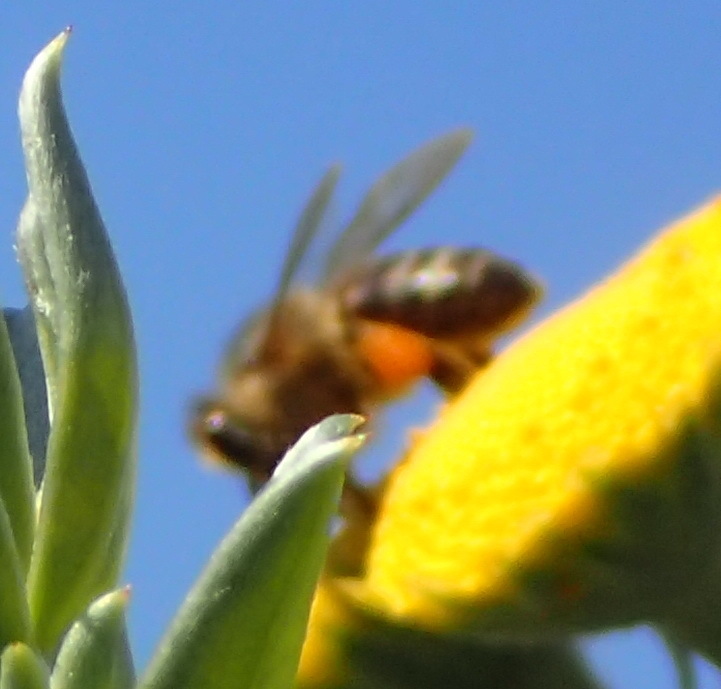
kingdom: Animalia
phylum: Arthropoda
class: Insecta
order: Hymenoptera
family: Apidae
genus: Apis
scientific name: Apis mellifera
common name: Honey bee
